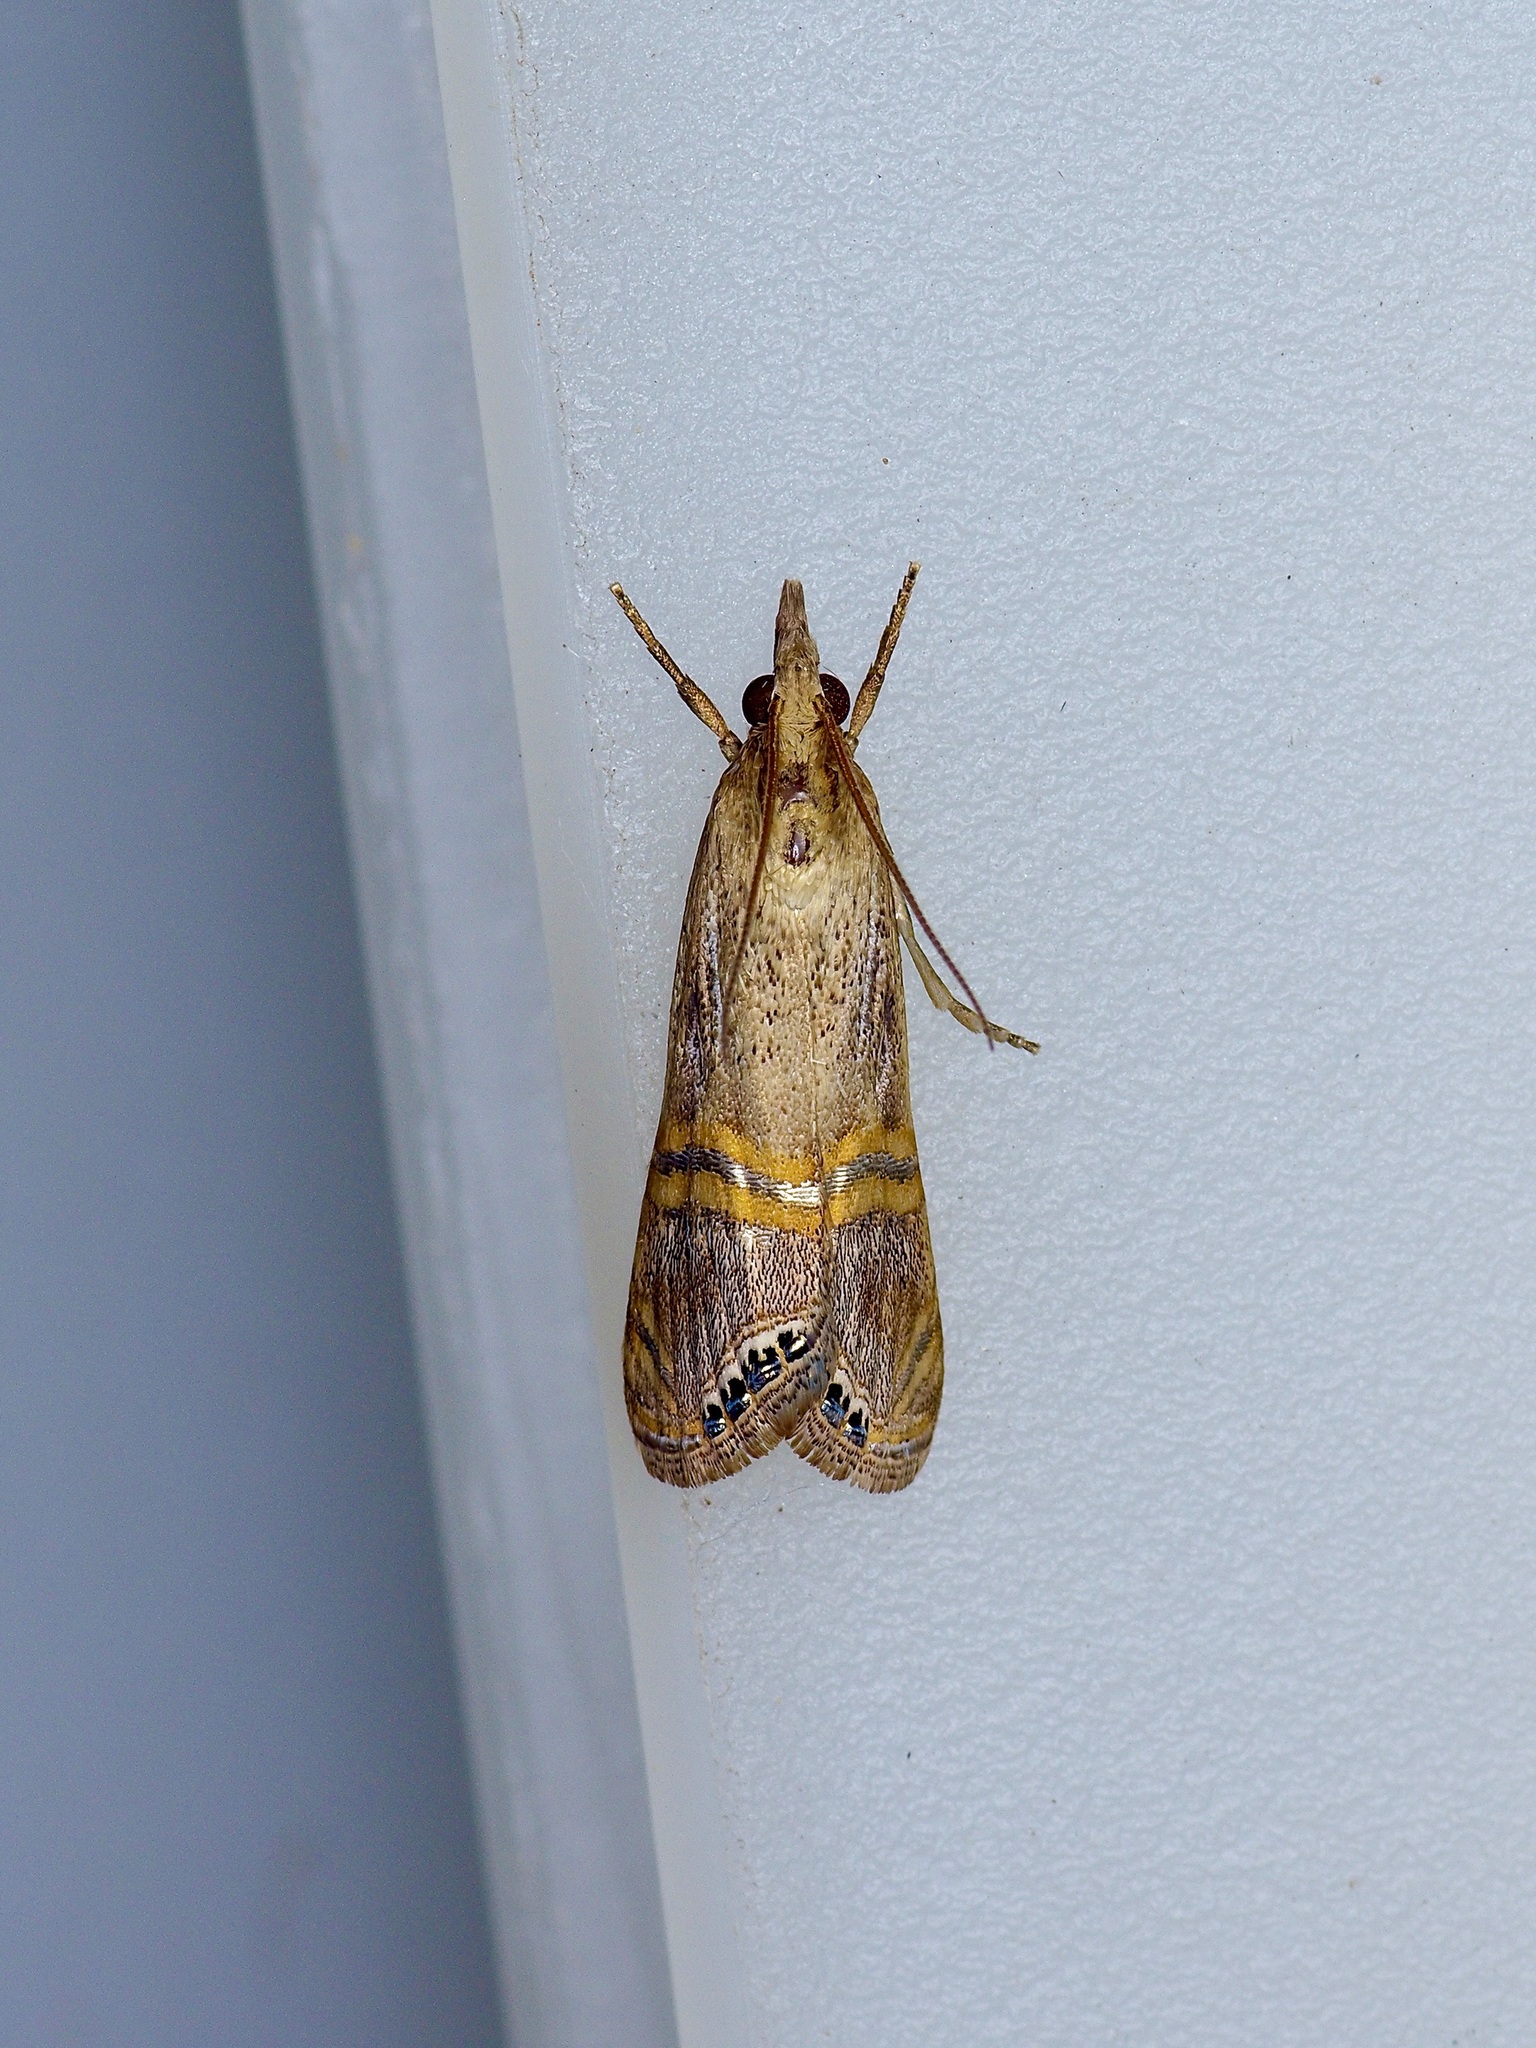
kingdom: Animalia
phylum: Arthropoda
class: Insecta
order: Lepidoptera
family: Crambidae
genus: Euchromius
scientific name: Euchromius ocellea
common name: Necklace veneer moth
